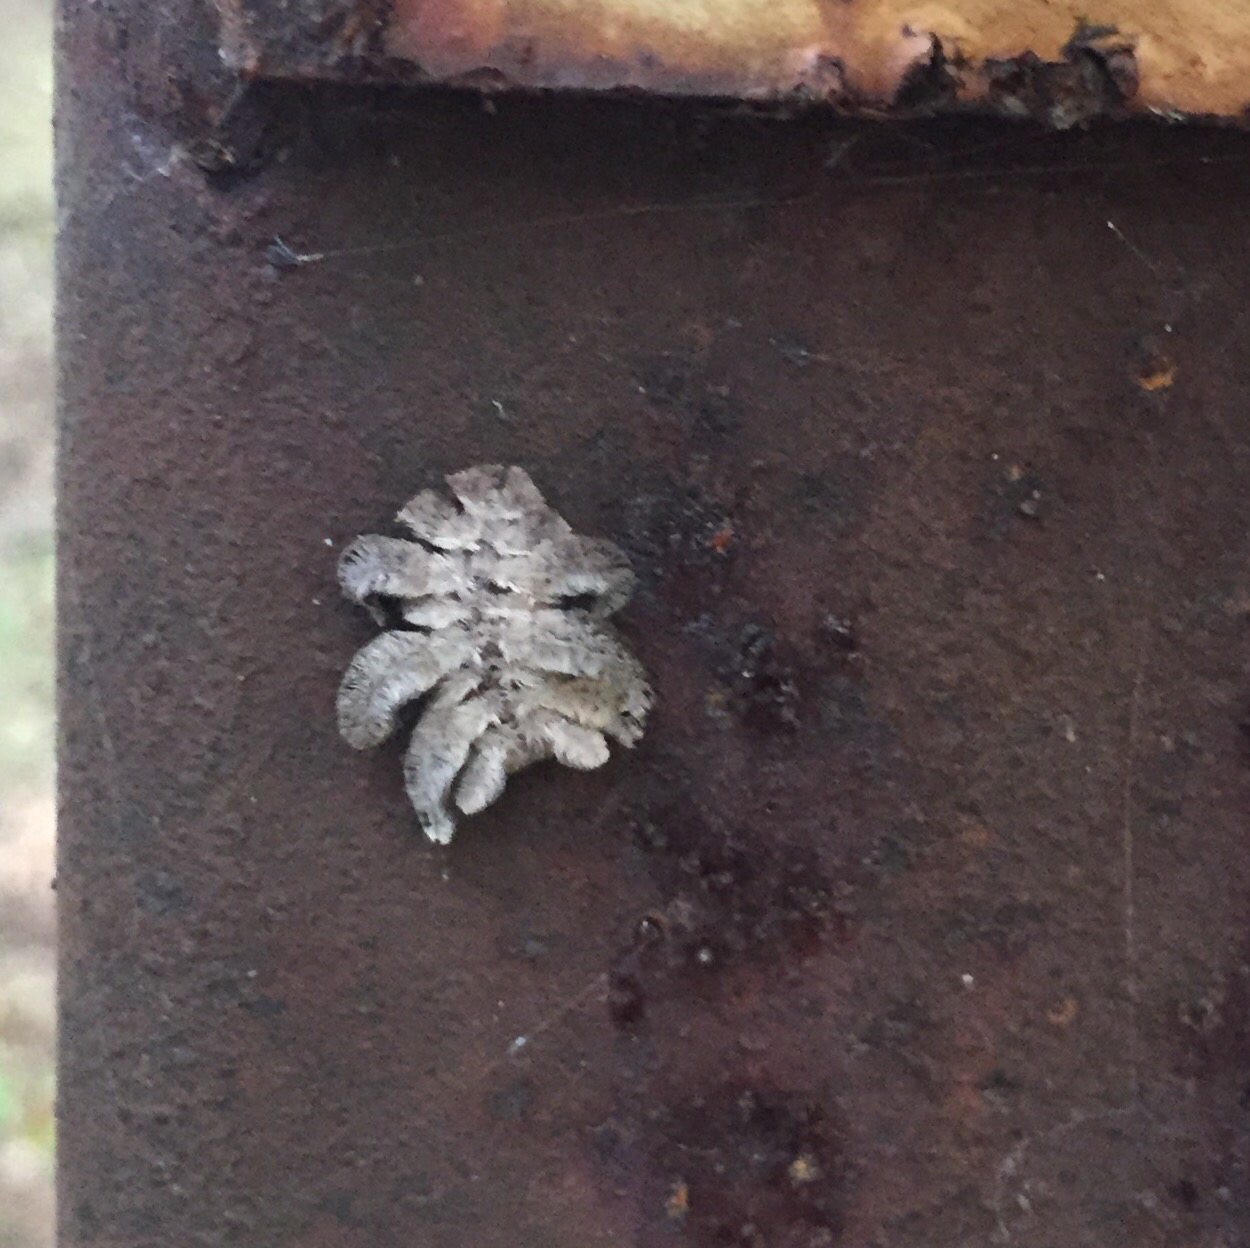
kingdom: Animalia
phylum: Arthropoda
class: Insecta
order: Lepidoptera
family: Limacodidae
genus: Phobetron
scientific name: Phobetron pithecium
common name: Hag moth
